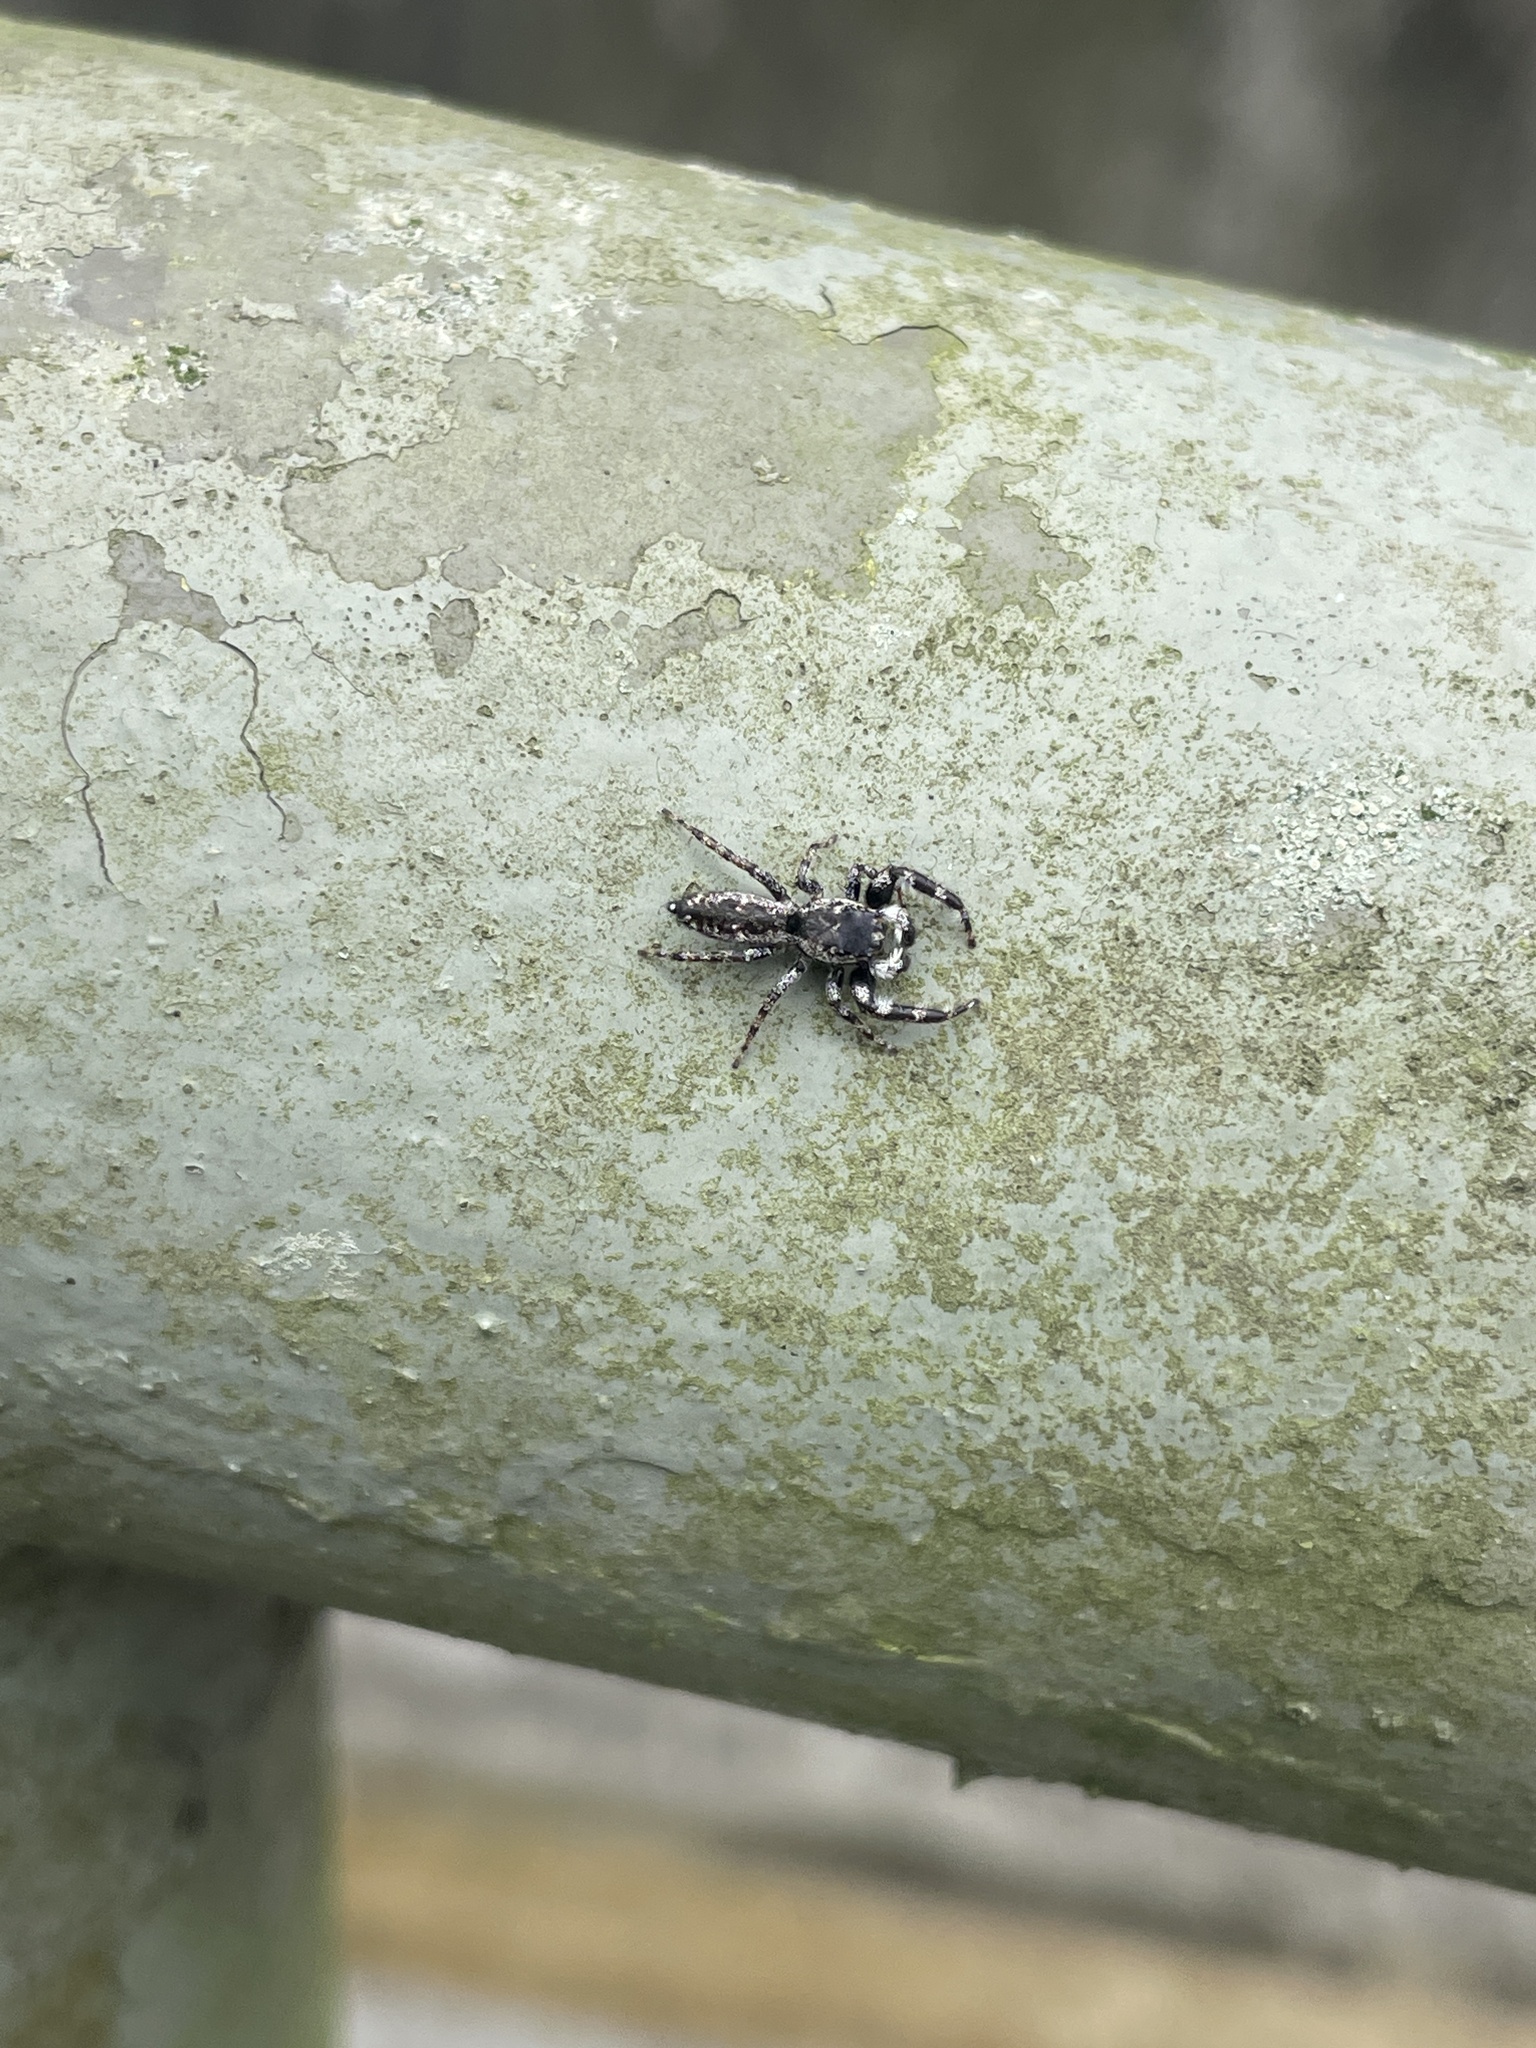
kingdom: Animalia
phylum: Arthropoda
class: Arachnida
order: Araneae
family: Salticidae
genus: Kelawakaju
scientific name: Kelawakaju frenata
